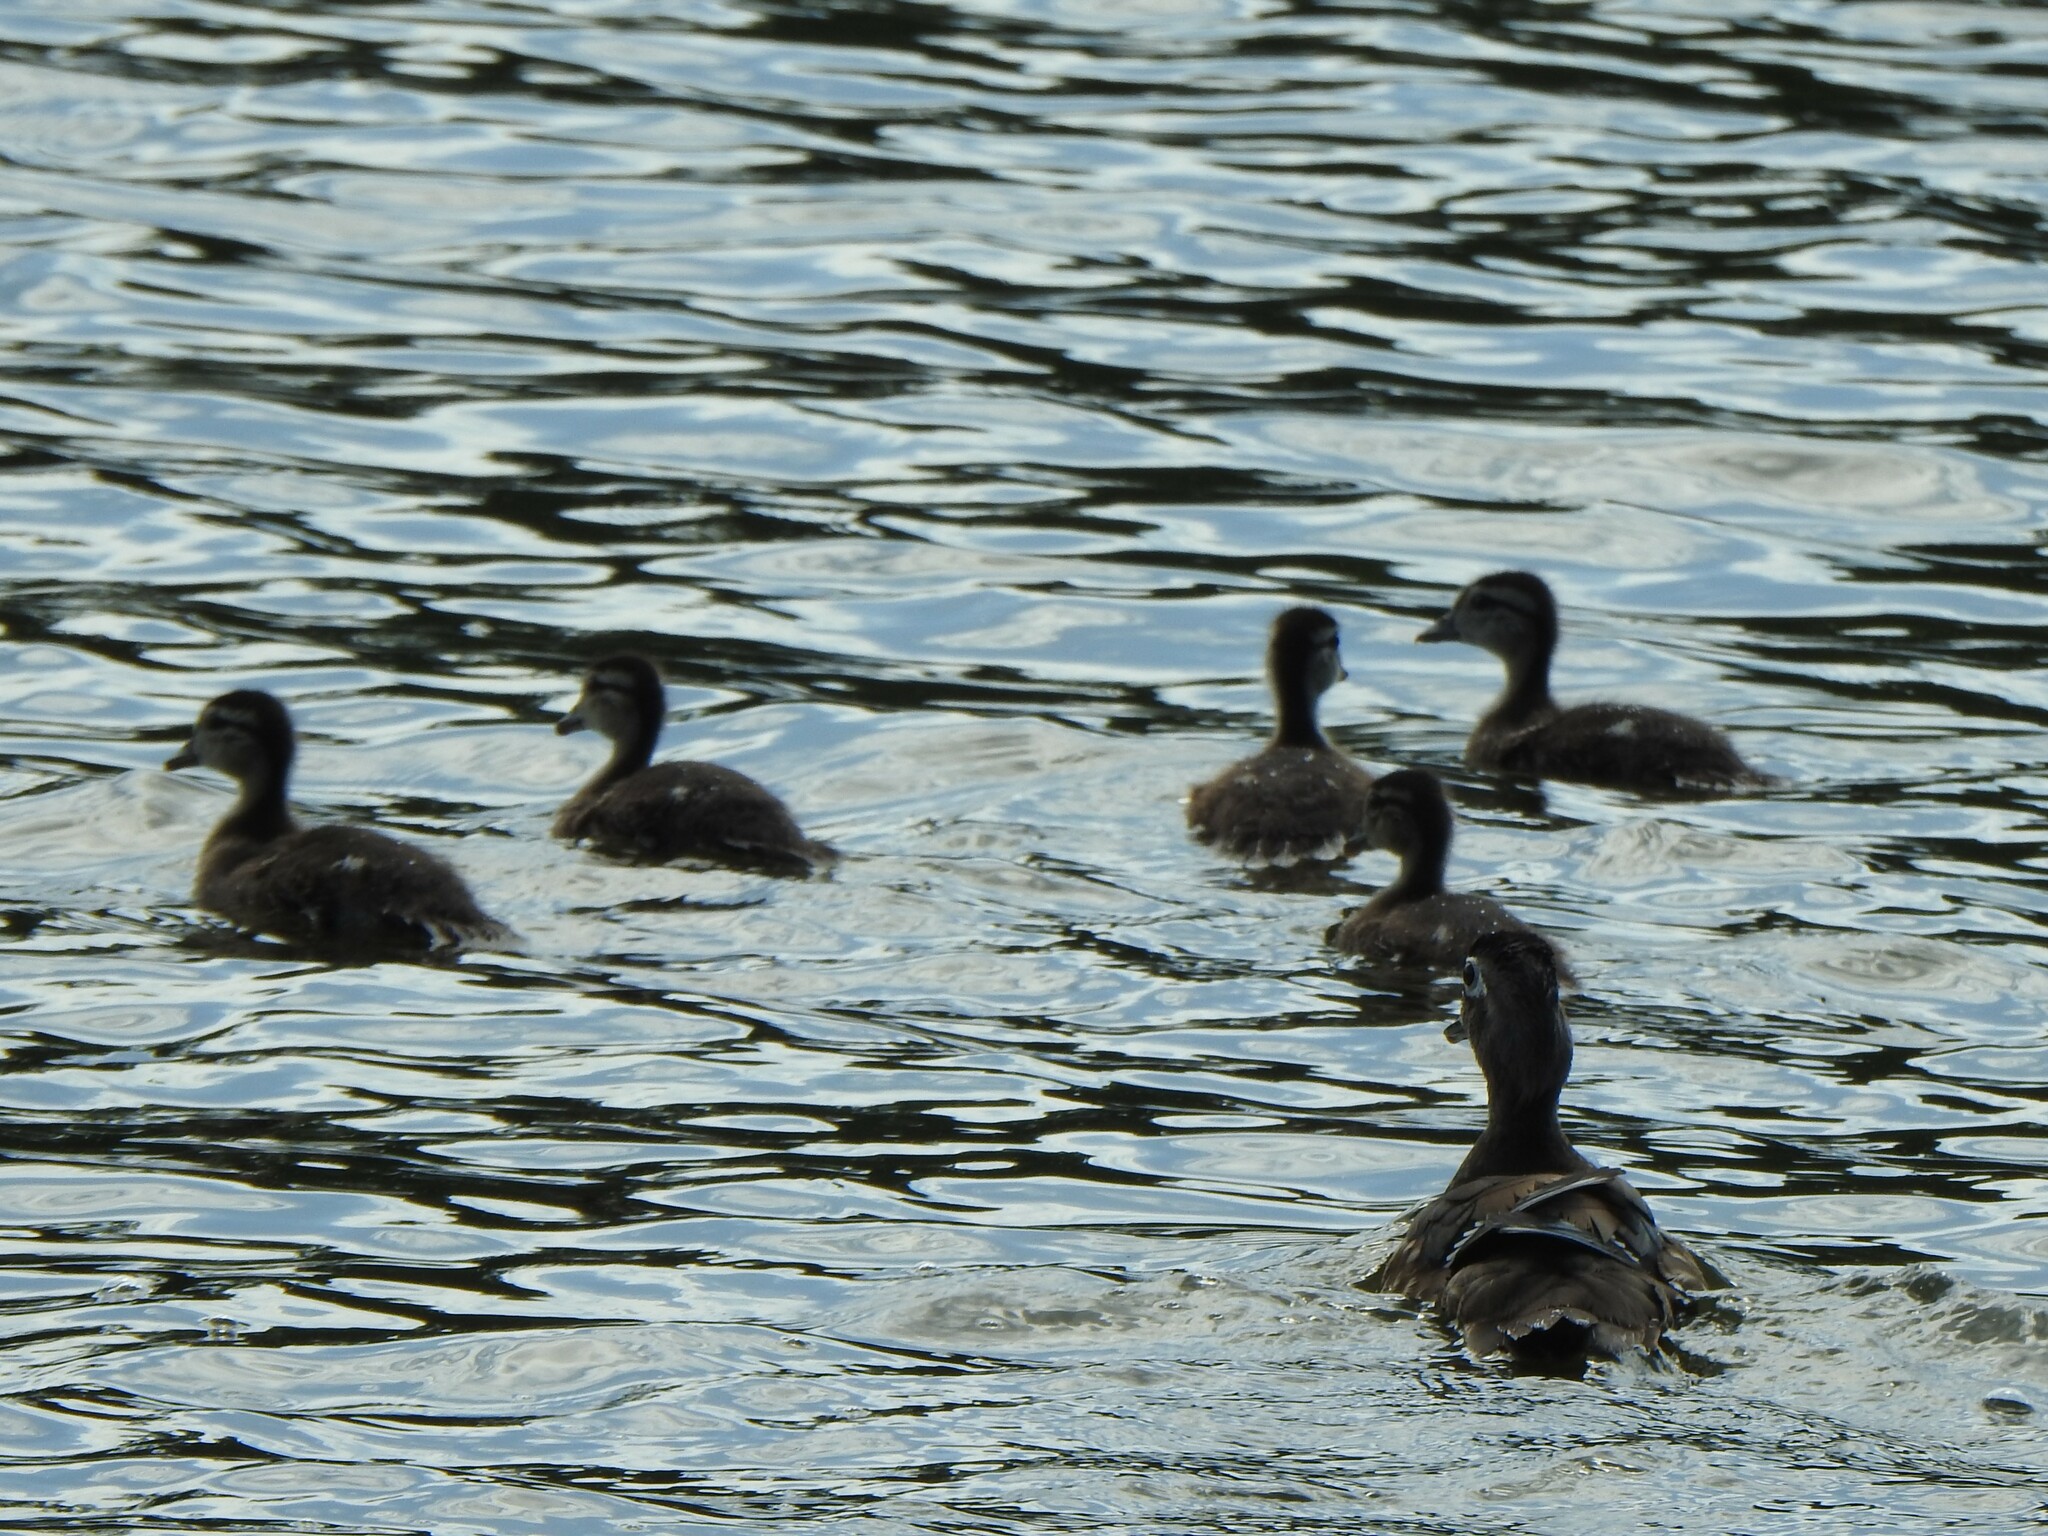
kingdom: Animalia
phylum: Chordata
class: Aves
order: Anseriformes
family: Anatidae
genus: Aix
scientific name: Aix sponsa
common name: Wood duck
